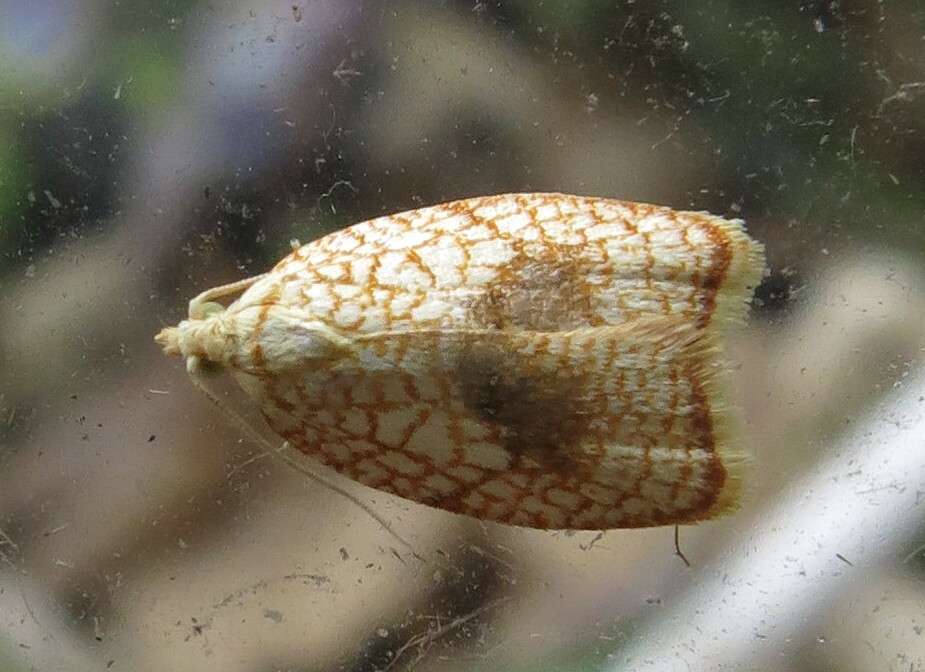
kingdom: Animalia
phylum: Arthropoda
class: Insecta
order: Lepidoptera
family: Tortricidae
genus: Acleris
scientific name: Acleris forsskaleana
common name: Maple button
